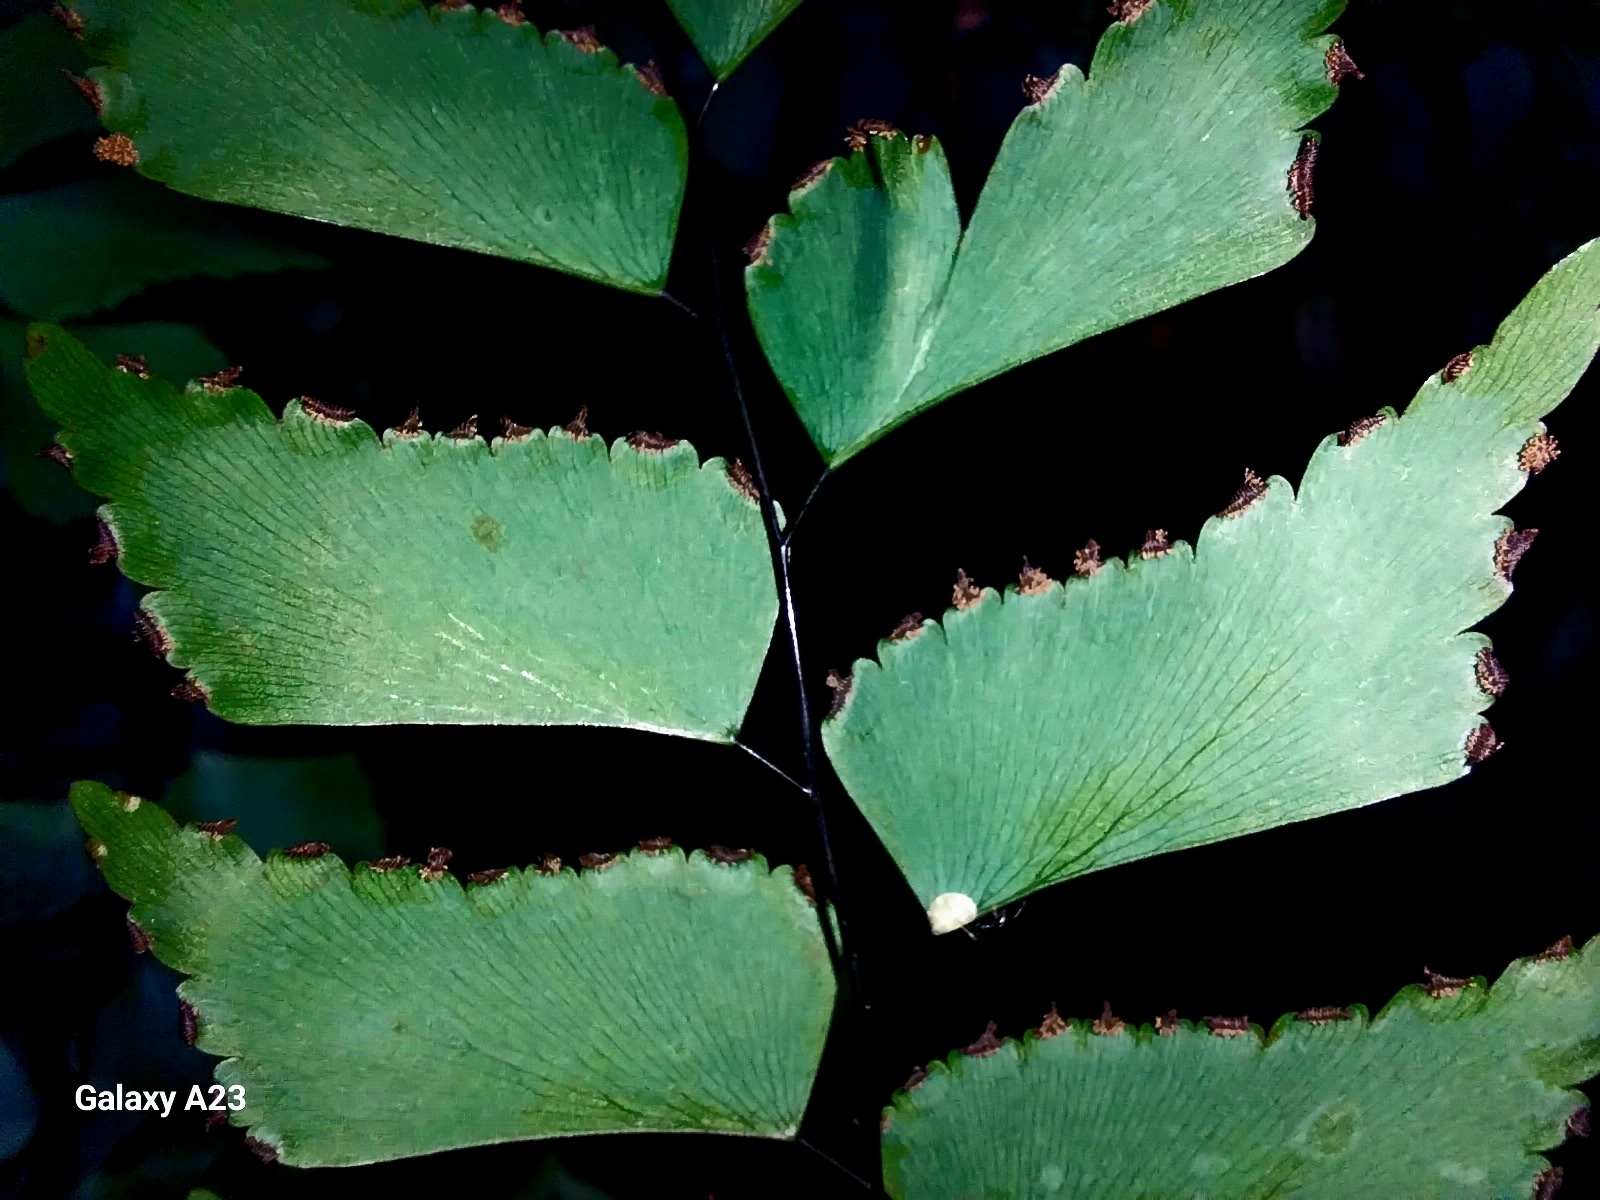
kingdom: Plantae
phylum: Tracheophyta
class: Polypodiopsida
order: Polypodiales
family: Pteridaceae
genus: Adiantum
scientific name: Adiantum trapeziforme
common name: Diamond maidenhair
